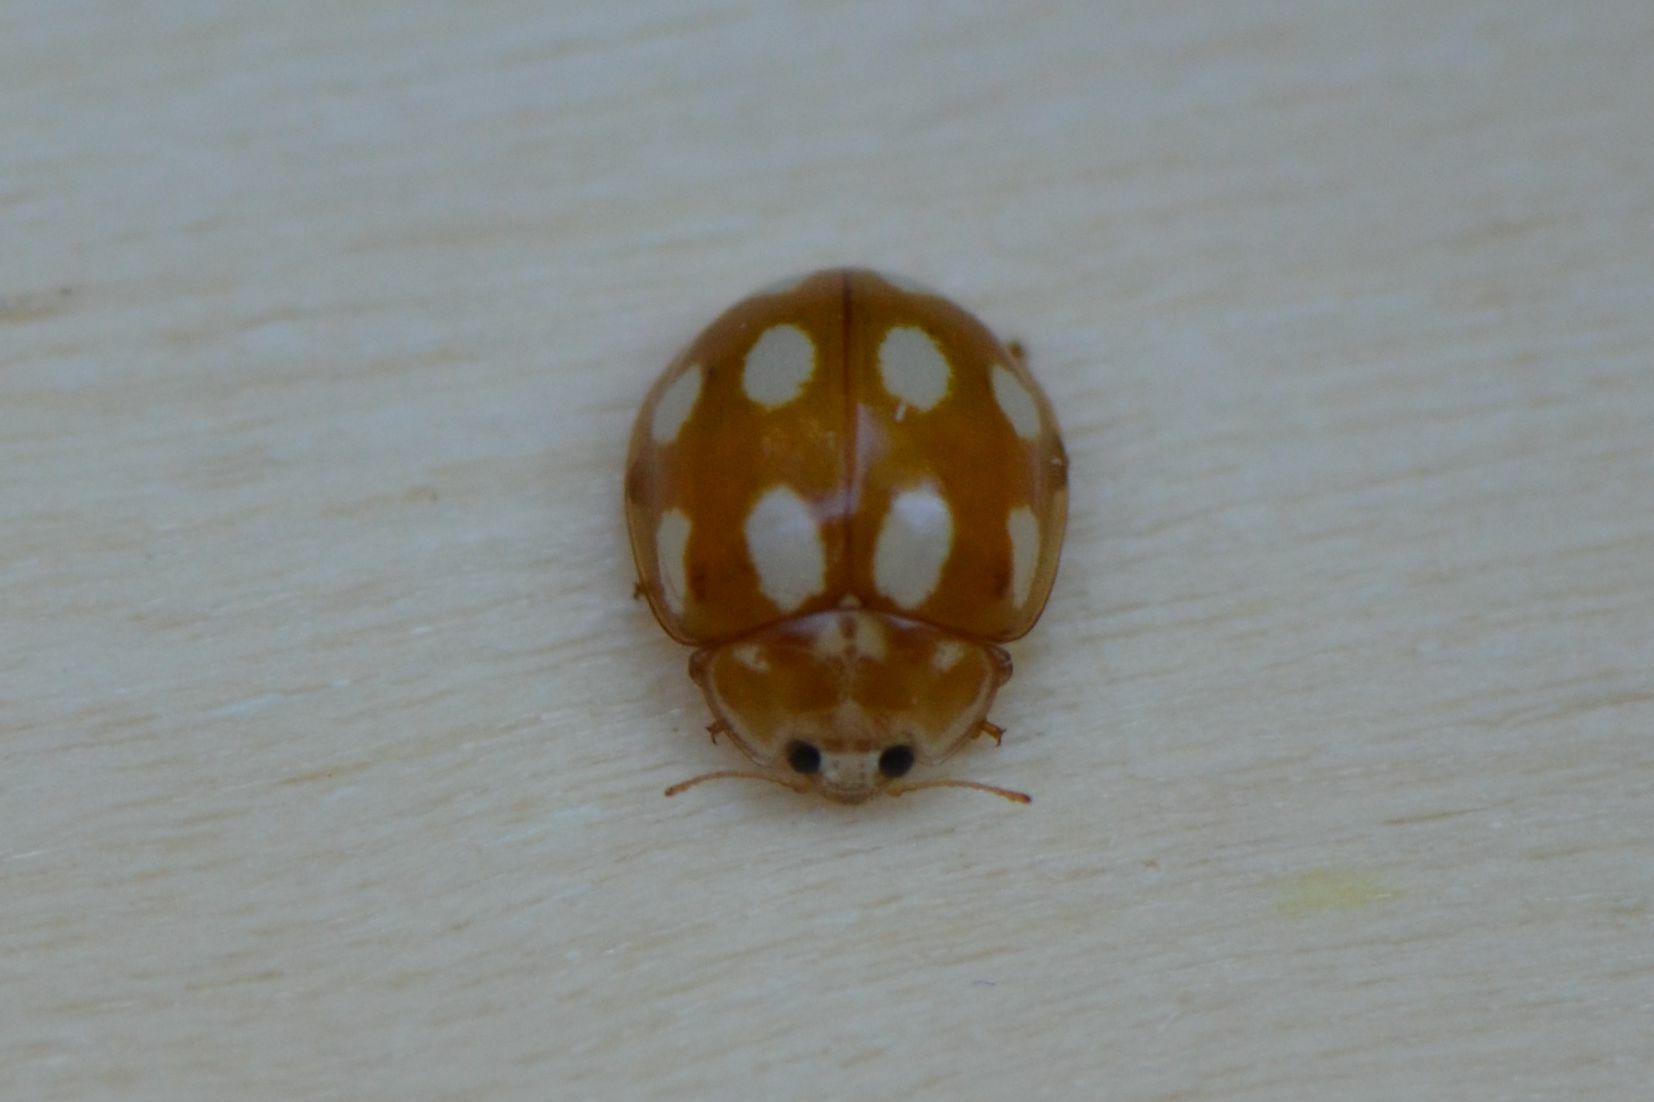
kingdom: Animalia
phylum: Arthropoda
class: Insecta
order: Coleoptera
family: Coccinellidae
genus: Calvia
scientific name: Calvia decemguttata
